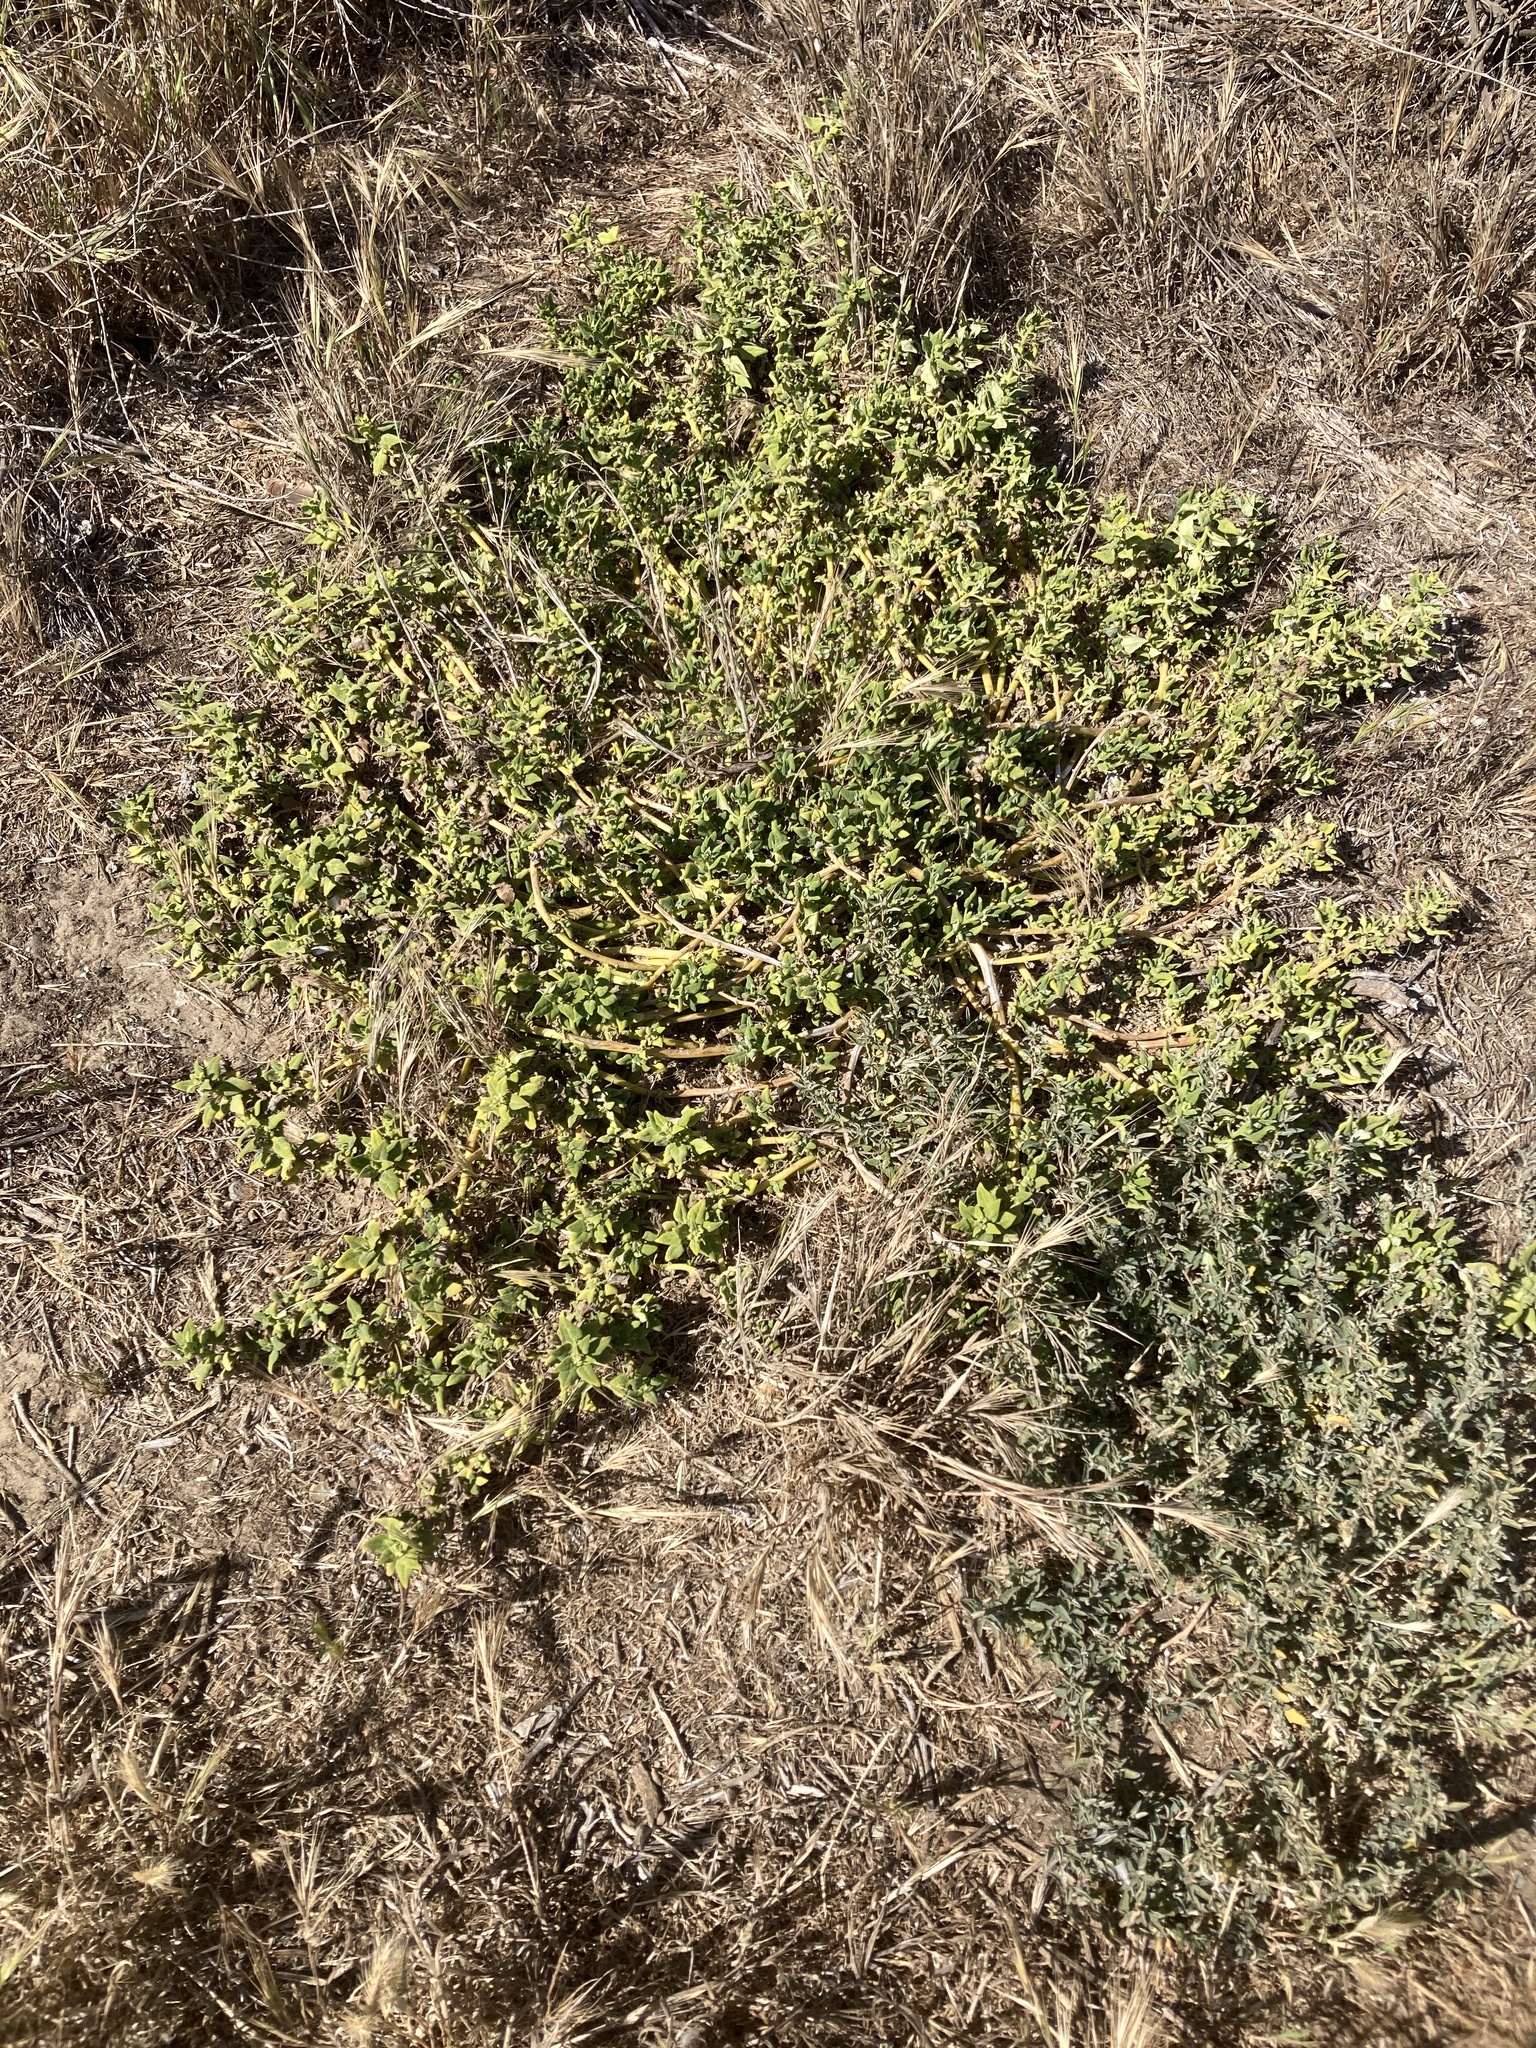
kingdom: Plantae
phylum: Tracheophyta
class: Magnoliopsida
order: Caryophyllales
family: Aizoaceae
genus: Tetragonia
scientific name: Tetragonia tetragonoides
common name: New zealand-spinach
